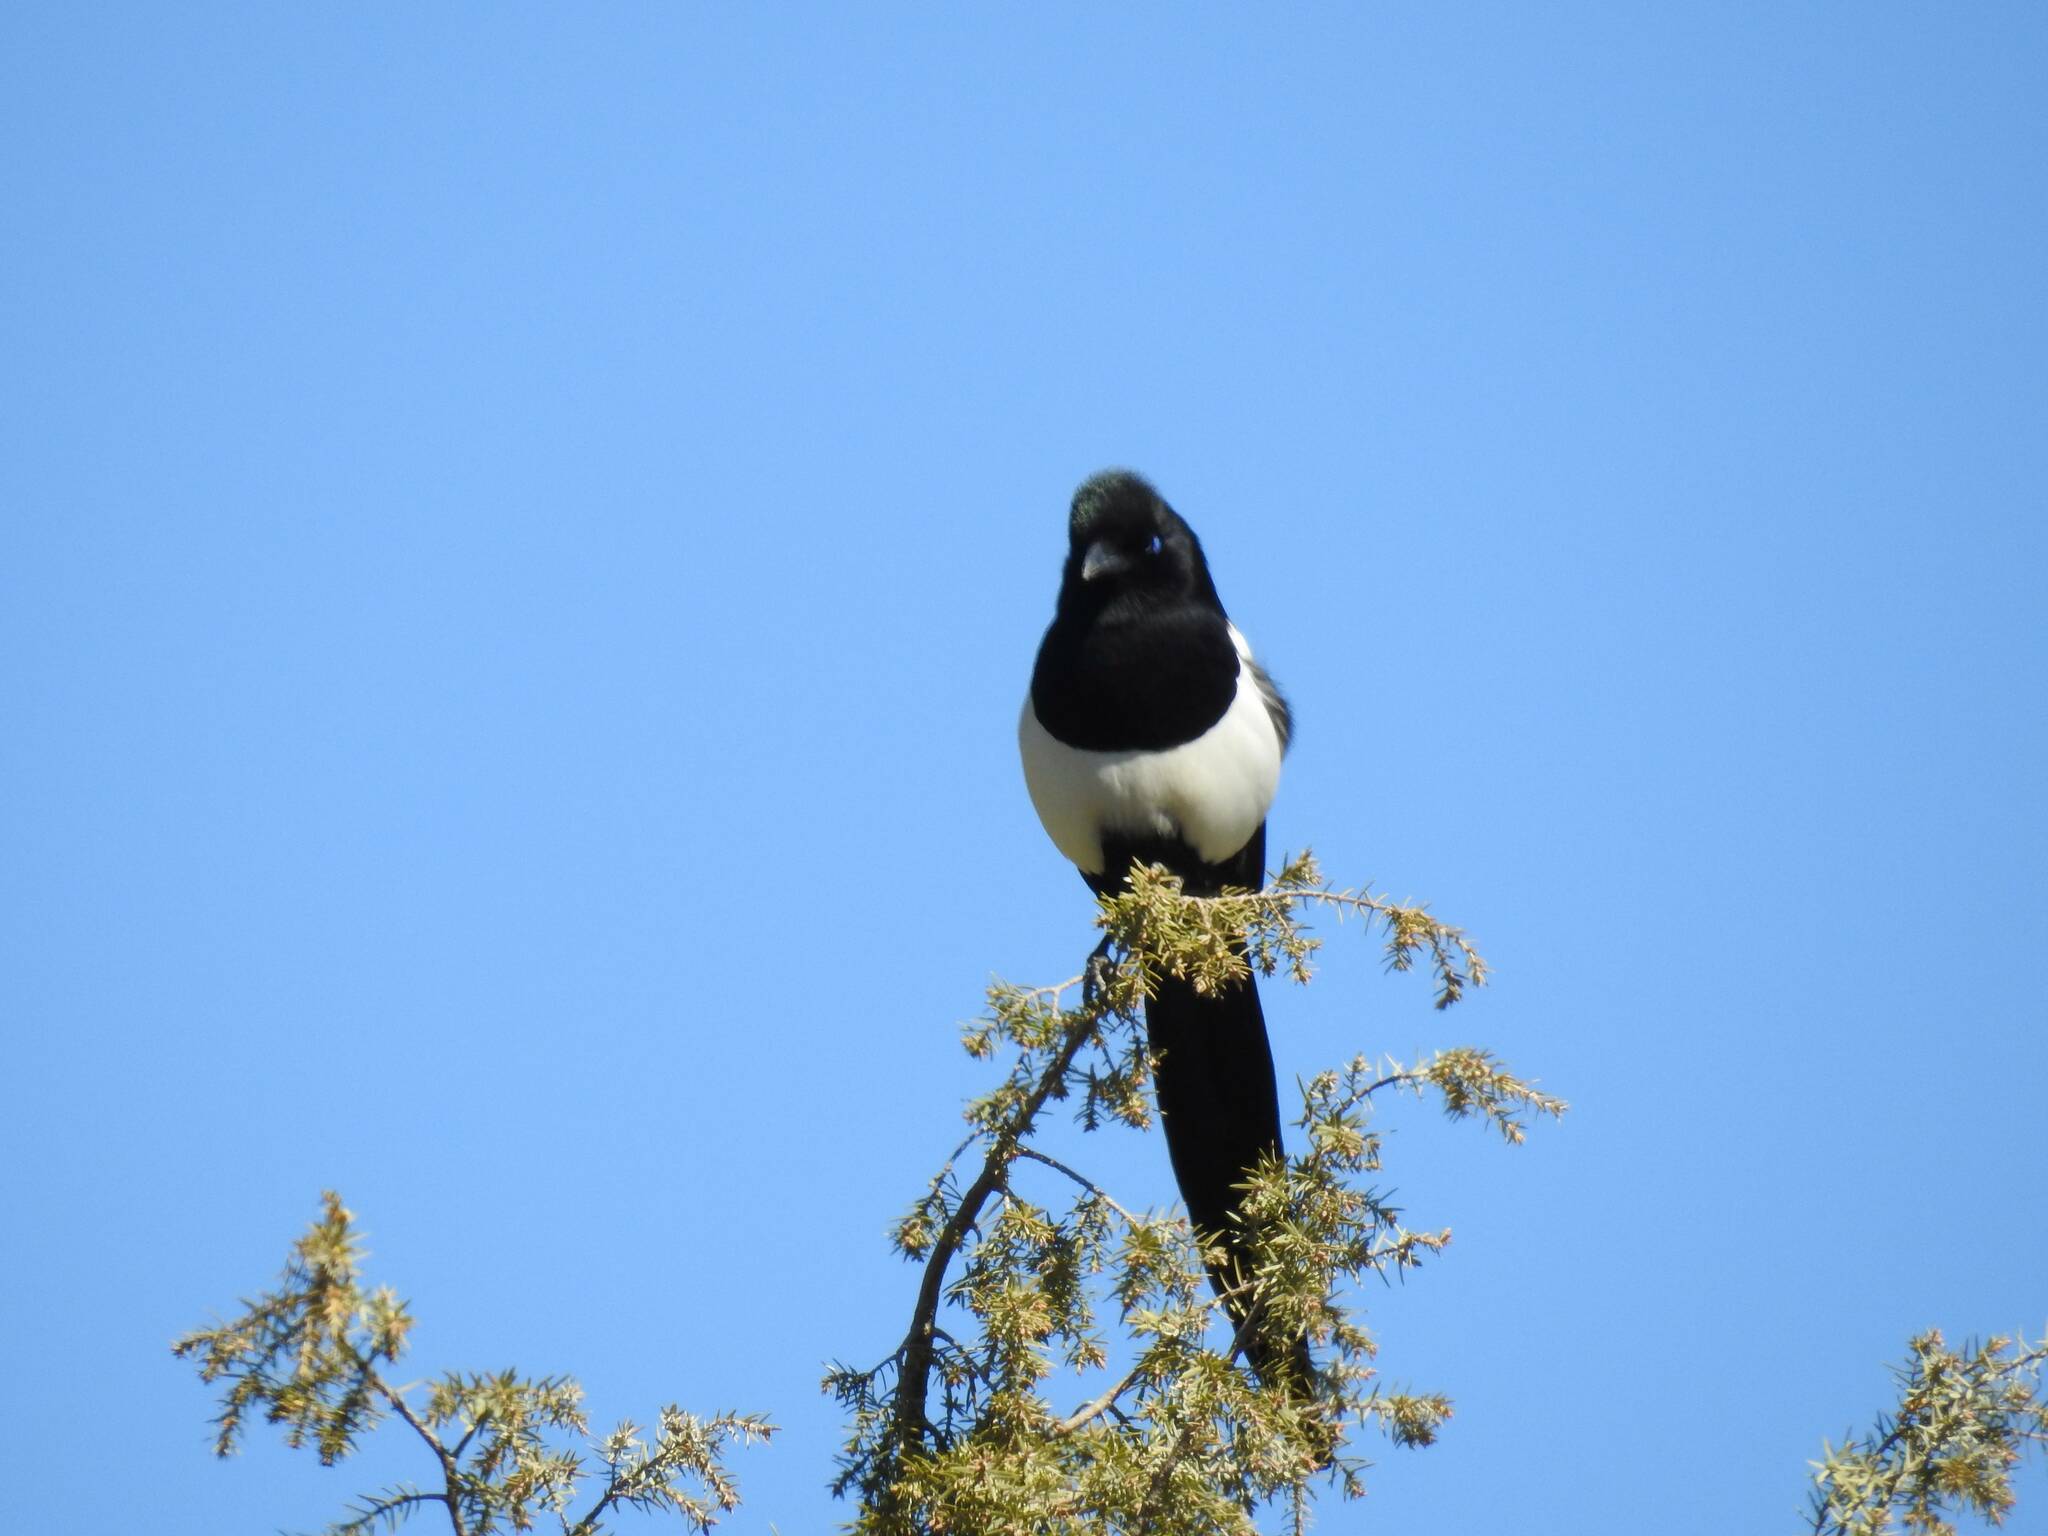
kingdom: Animalia
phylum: Chordata
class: Aves
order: Passeriformes
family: Corvidae
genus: Pica
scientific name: Pica mauritanica
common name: Maghreb magpie
